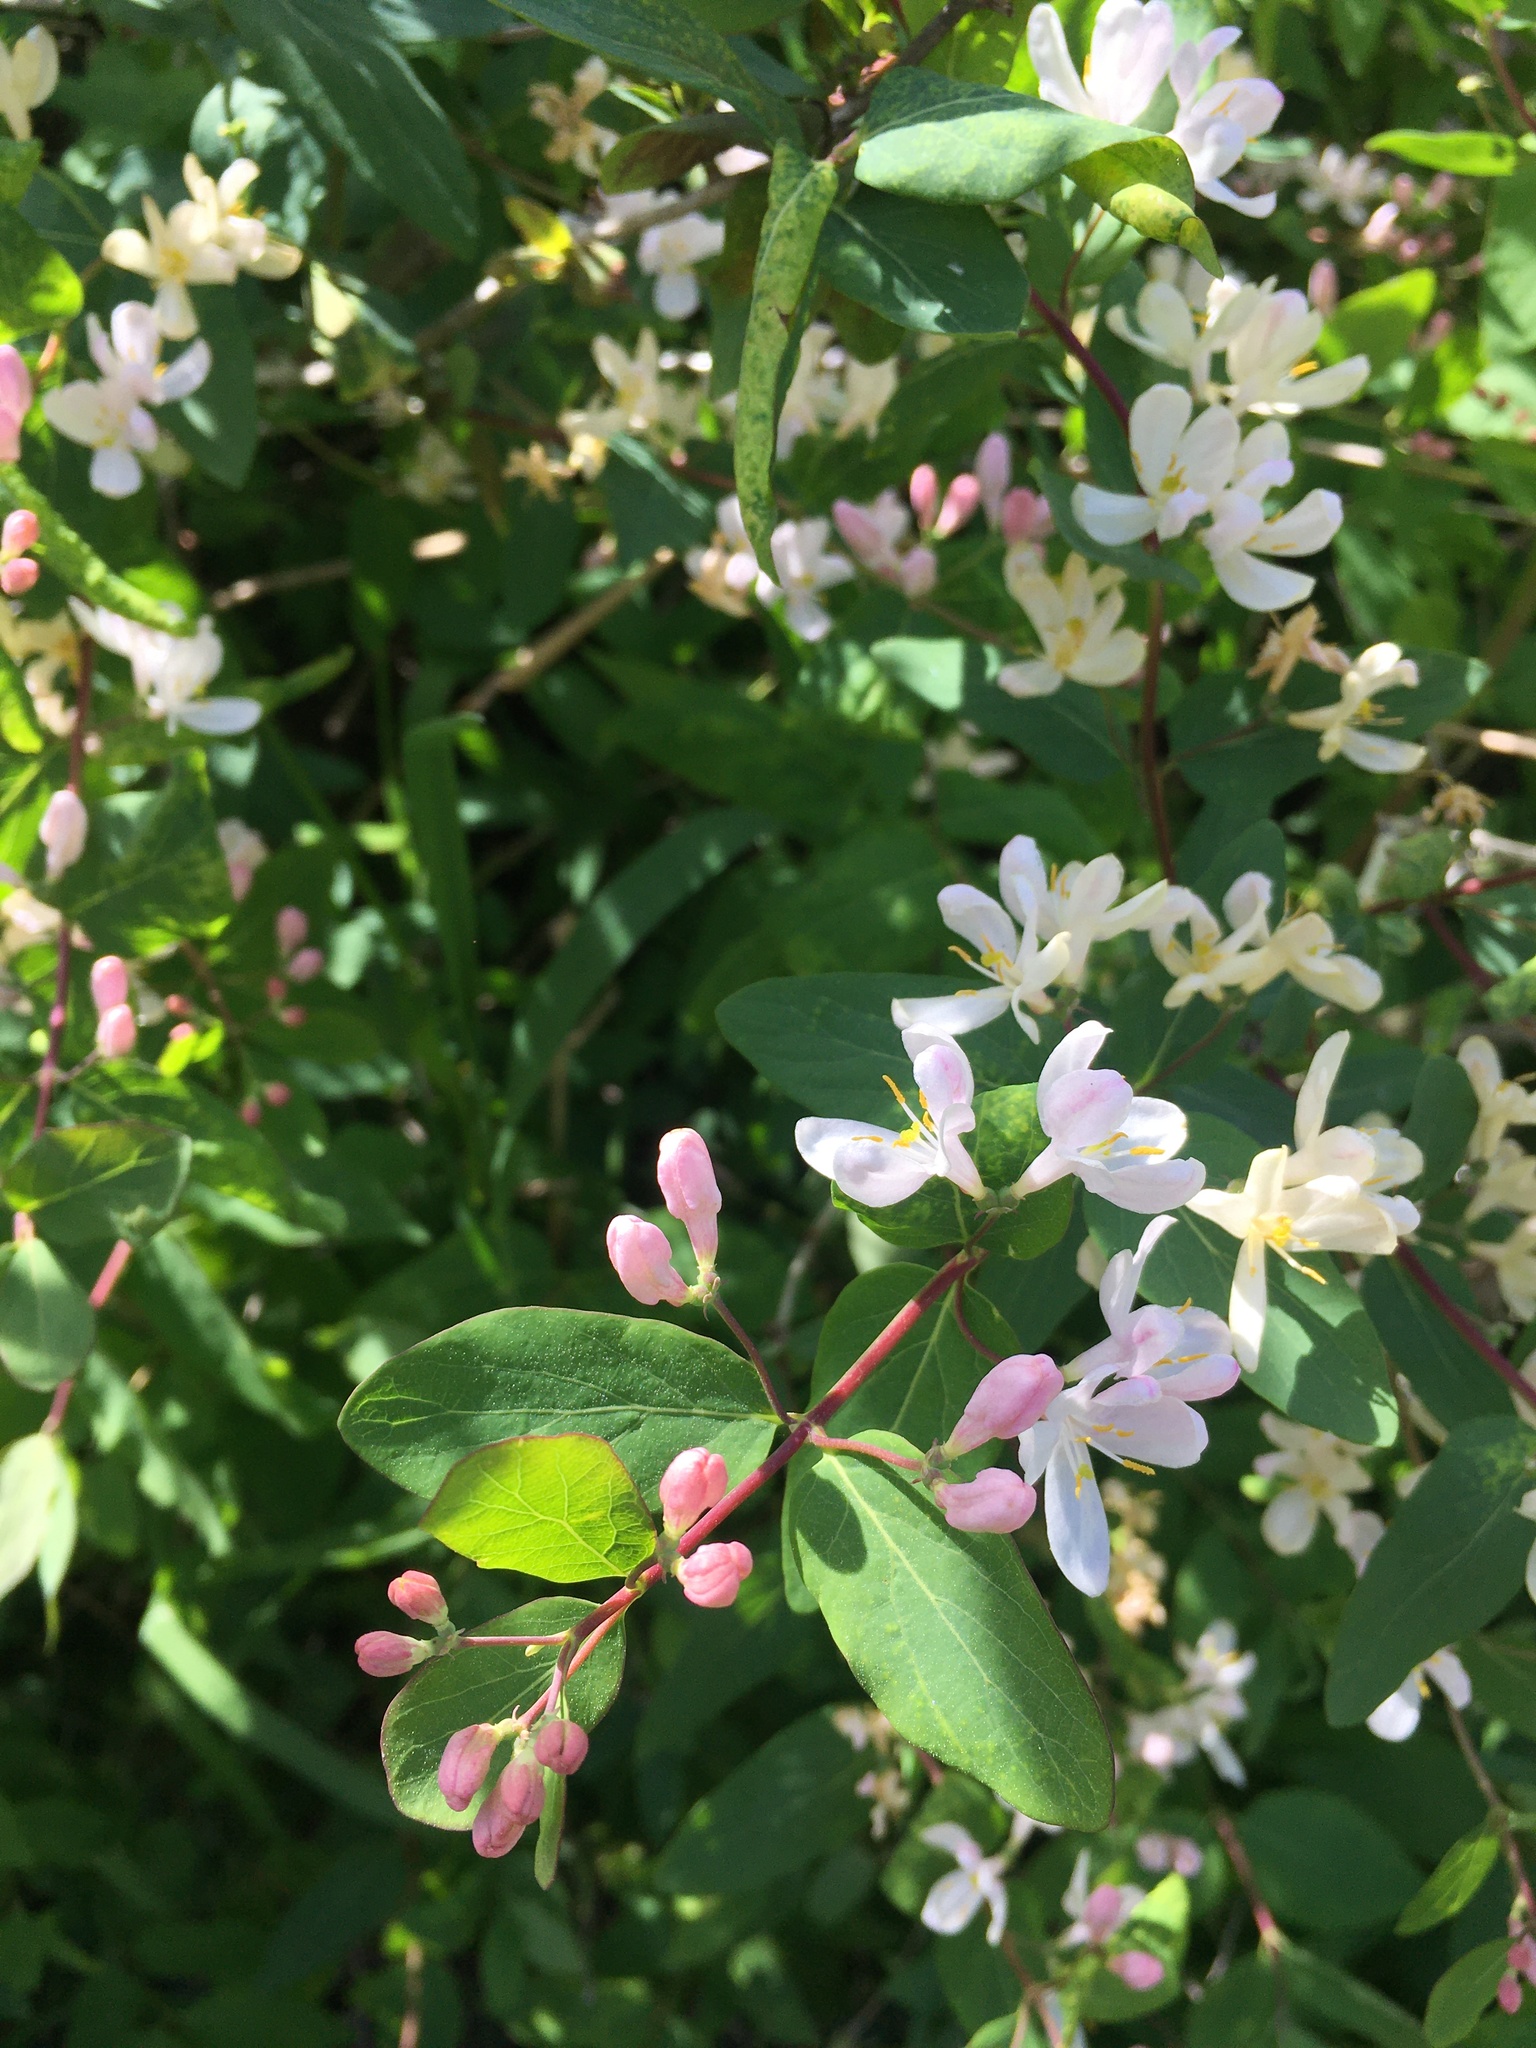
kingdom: Plantae
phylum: Tracheophyta
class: Magnoliopsida
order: Dipsacales
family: Caprifoliaceae
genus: Lonicera
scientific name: Lonicera xylosteum
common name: Fly honeysuckle
